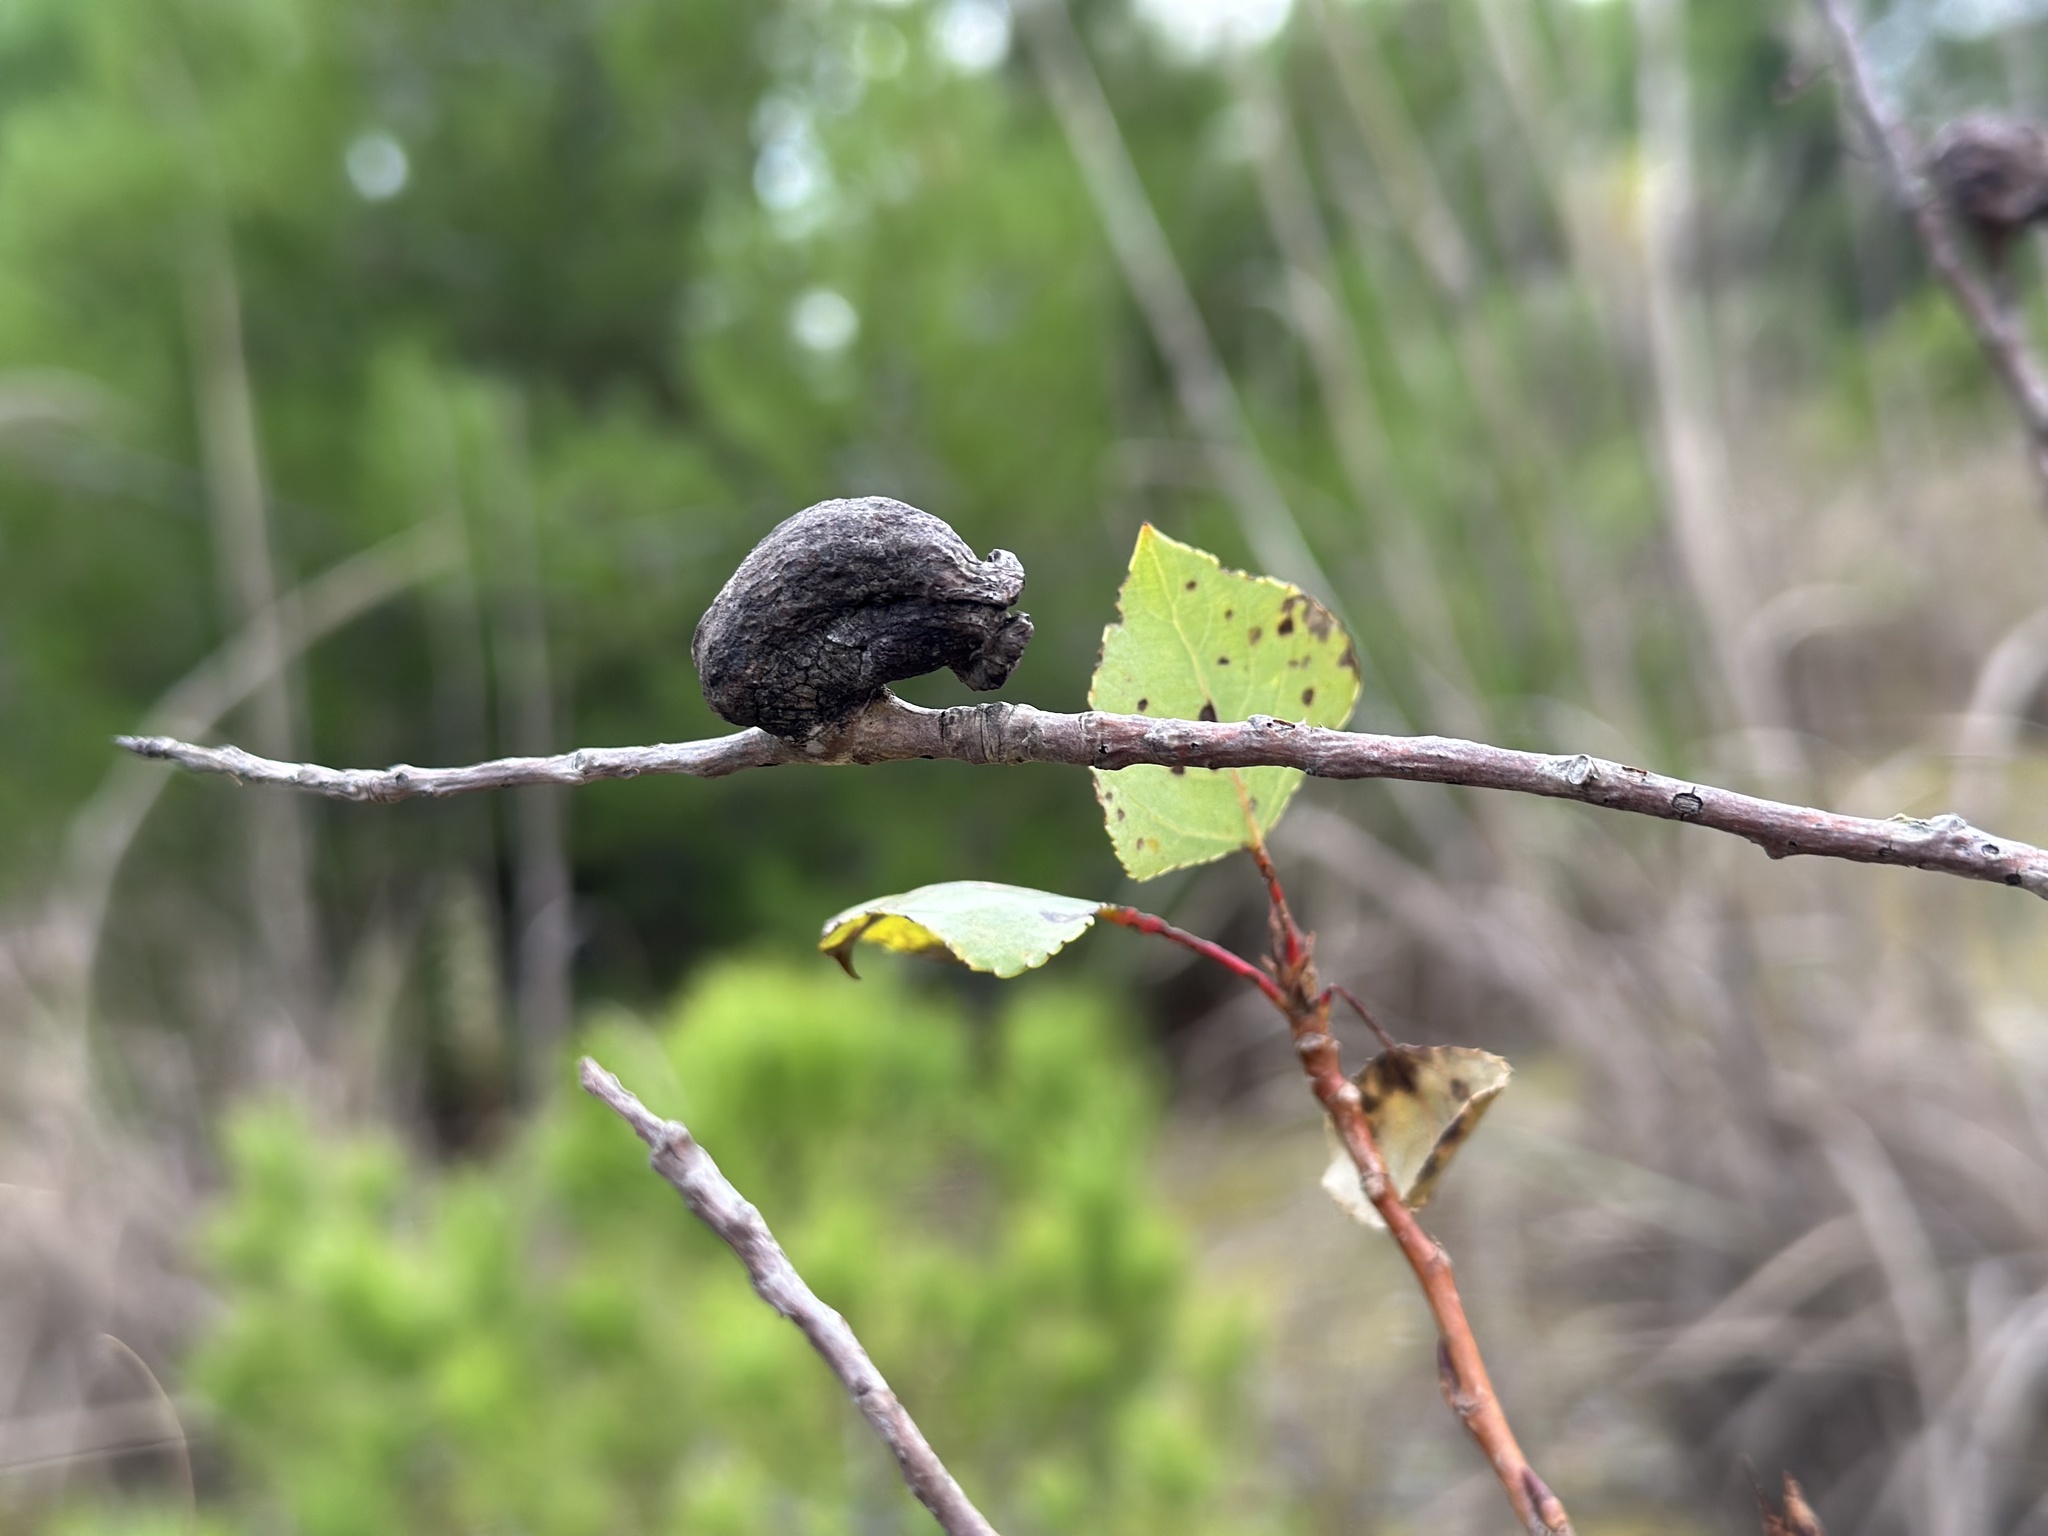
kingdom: Animalia
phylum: Arthropoda
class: Insecta
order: Hemiptera
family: Aphididae
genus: Pemphigus
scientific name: Pemphigus immunis
